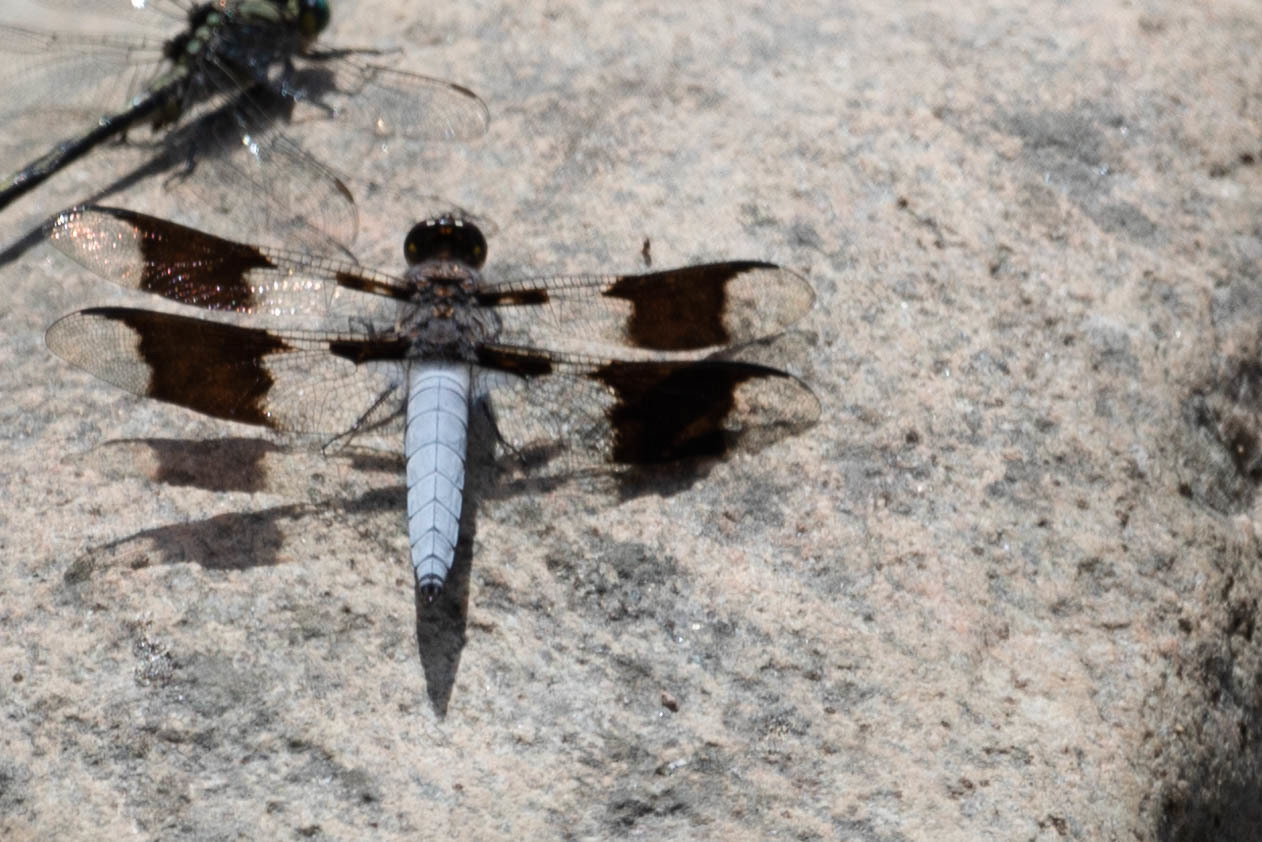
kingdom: Animalia
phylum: Arthropoda
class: Insecta
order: Odonata
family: Libellulidae
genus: Plathemis
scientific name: Plathemis lydia
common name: Common whitetail
